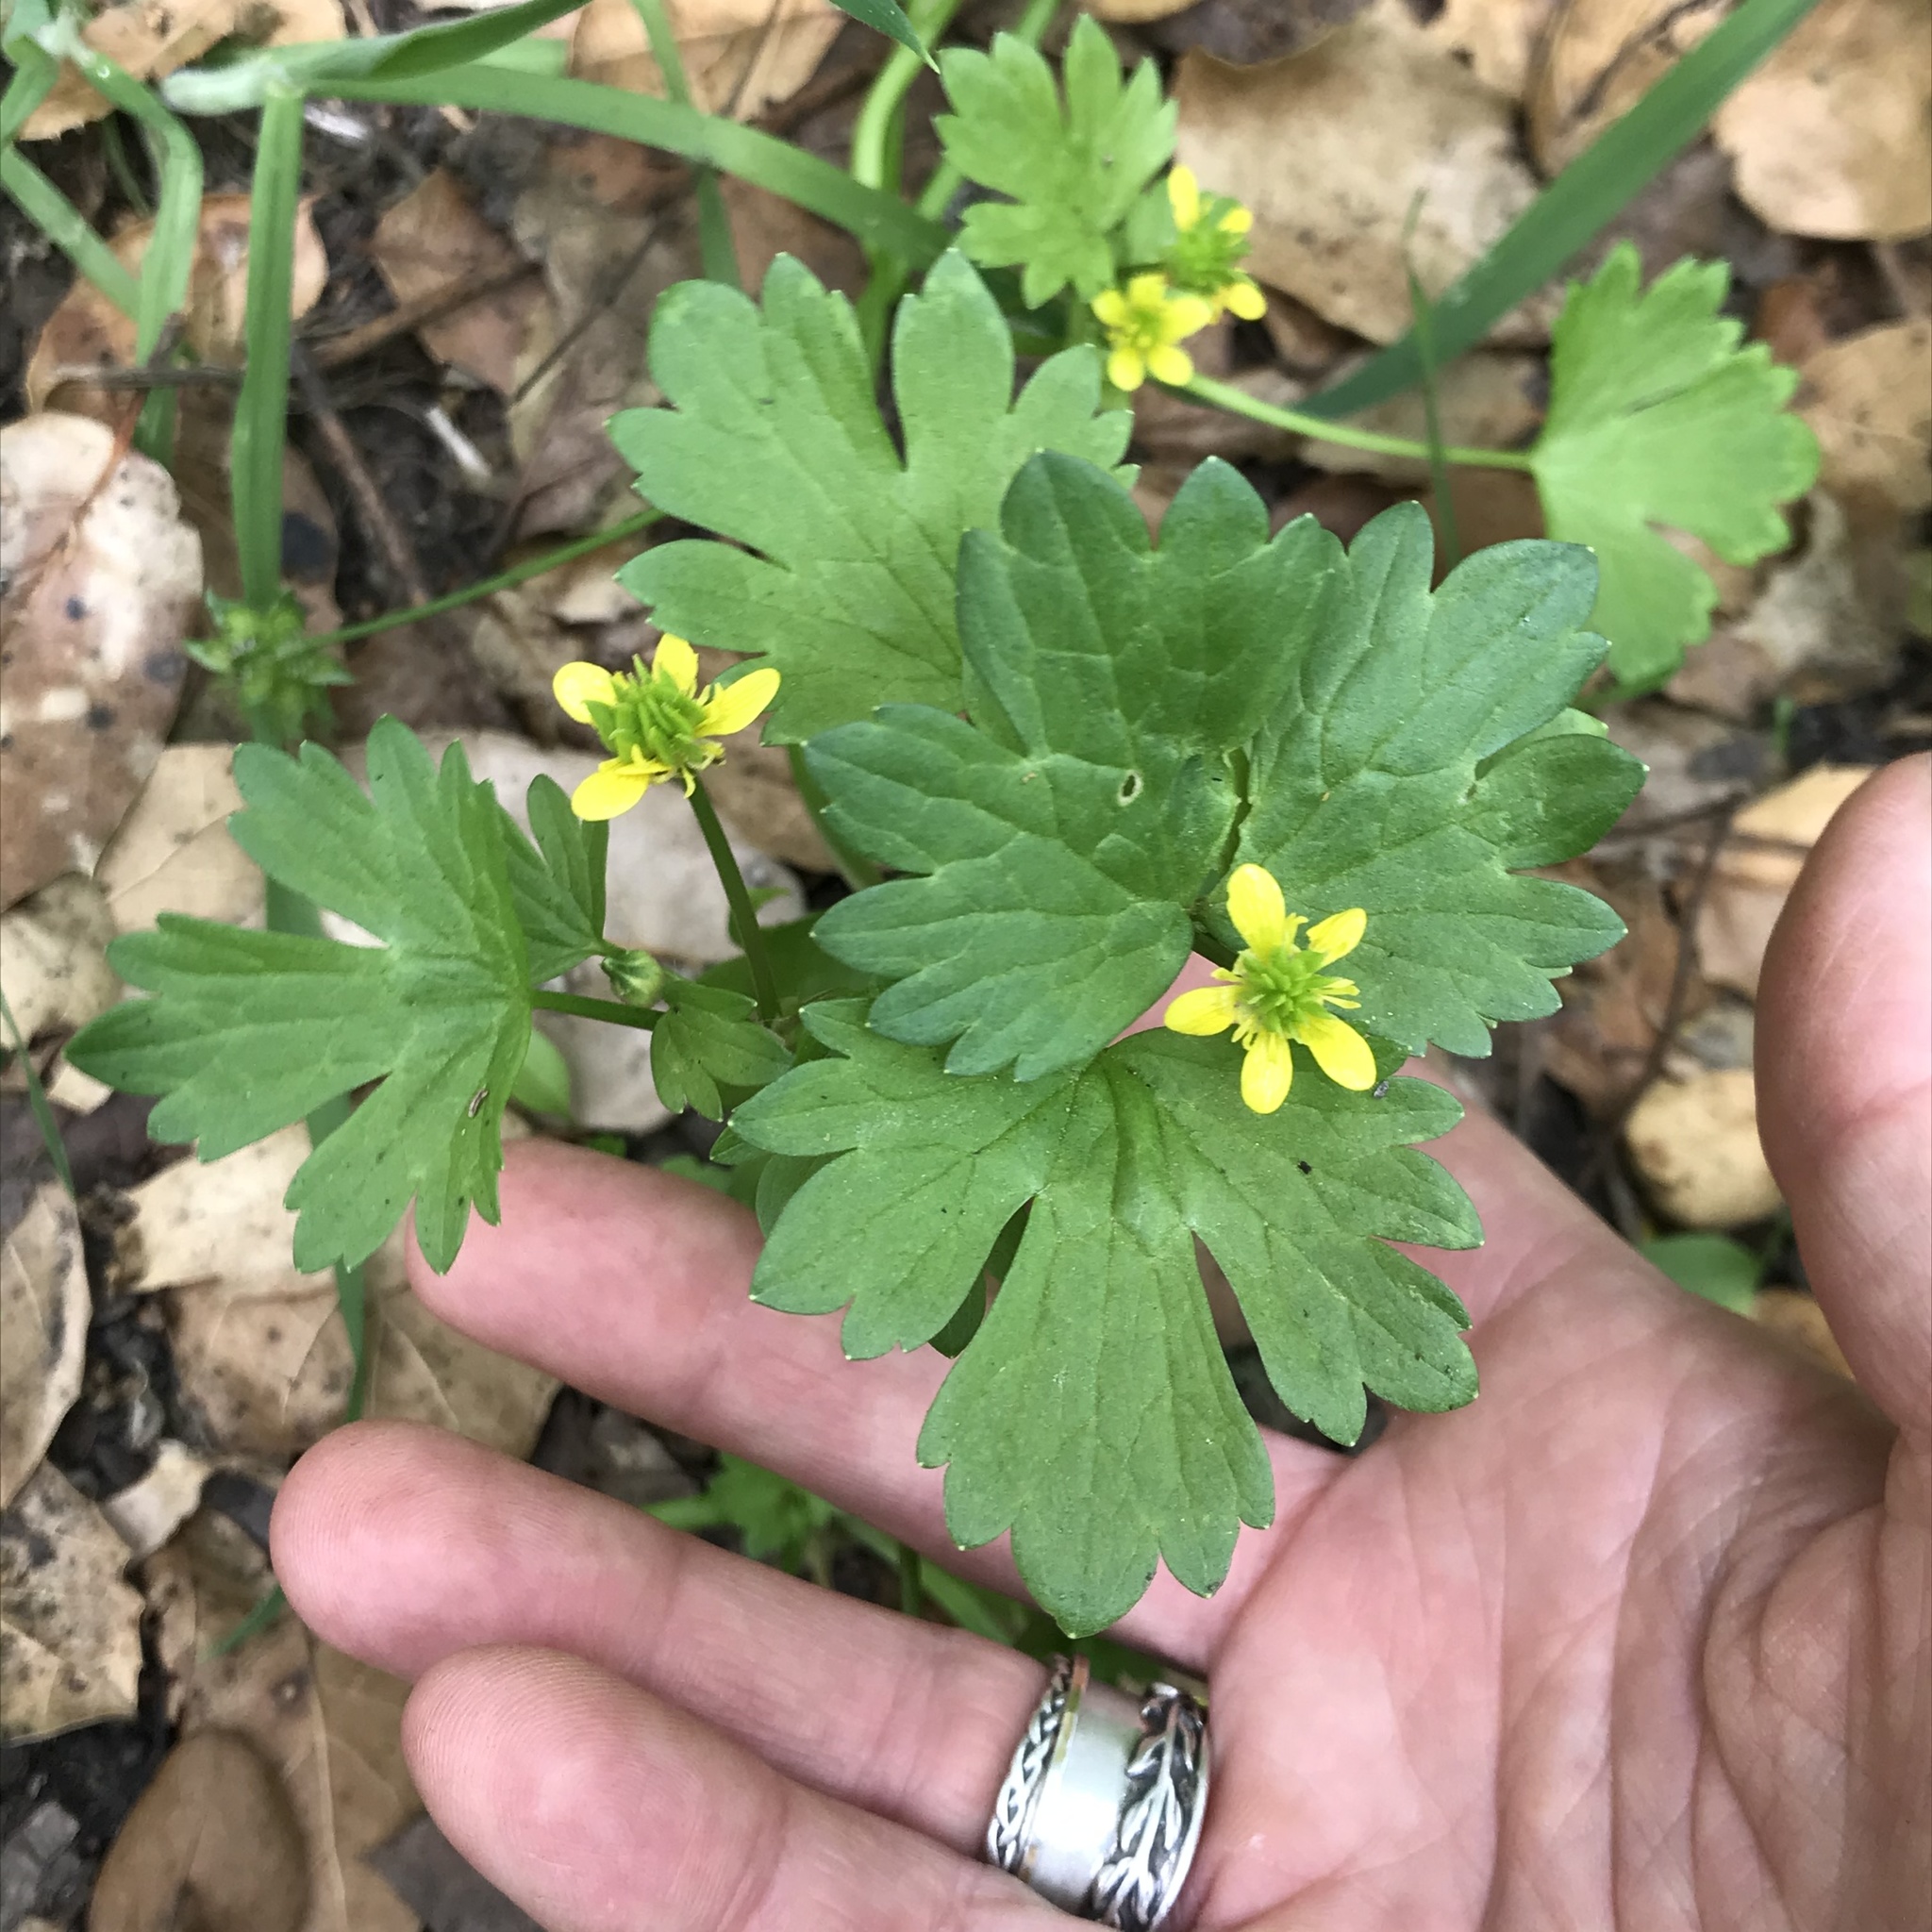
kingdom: Plantae
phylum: Tracheophyta
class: Magnoliopsida
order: Ranunculales
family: Ranunculaceae
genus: Ranunculus
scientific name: Ranunculus muricatus
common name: Rough-fruited buttercup
